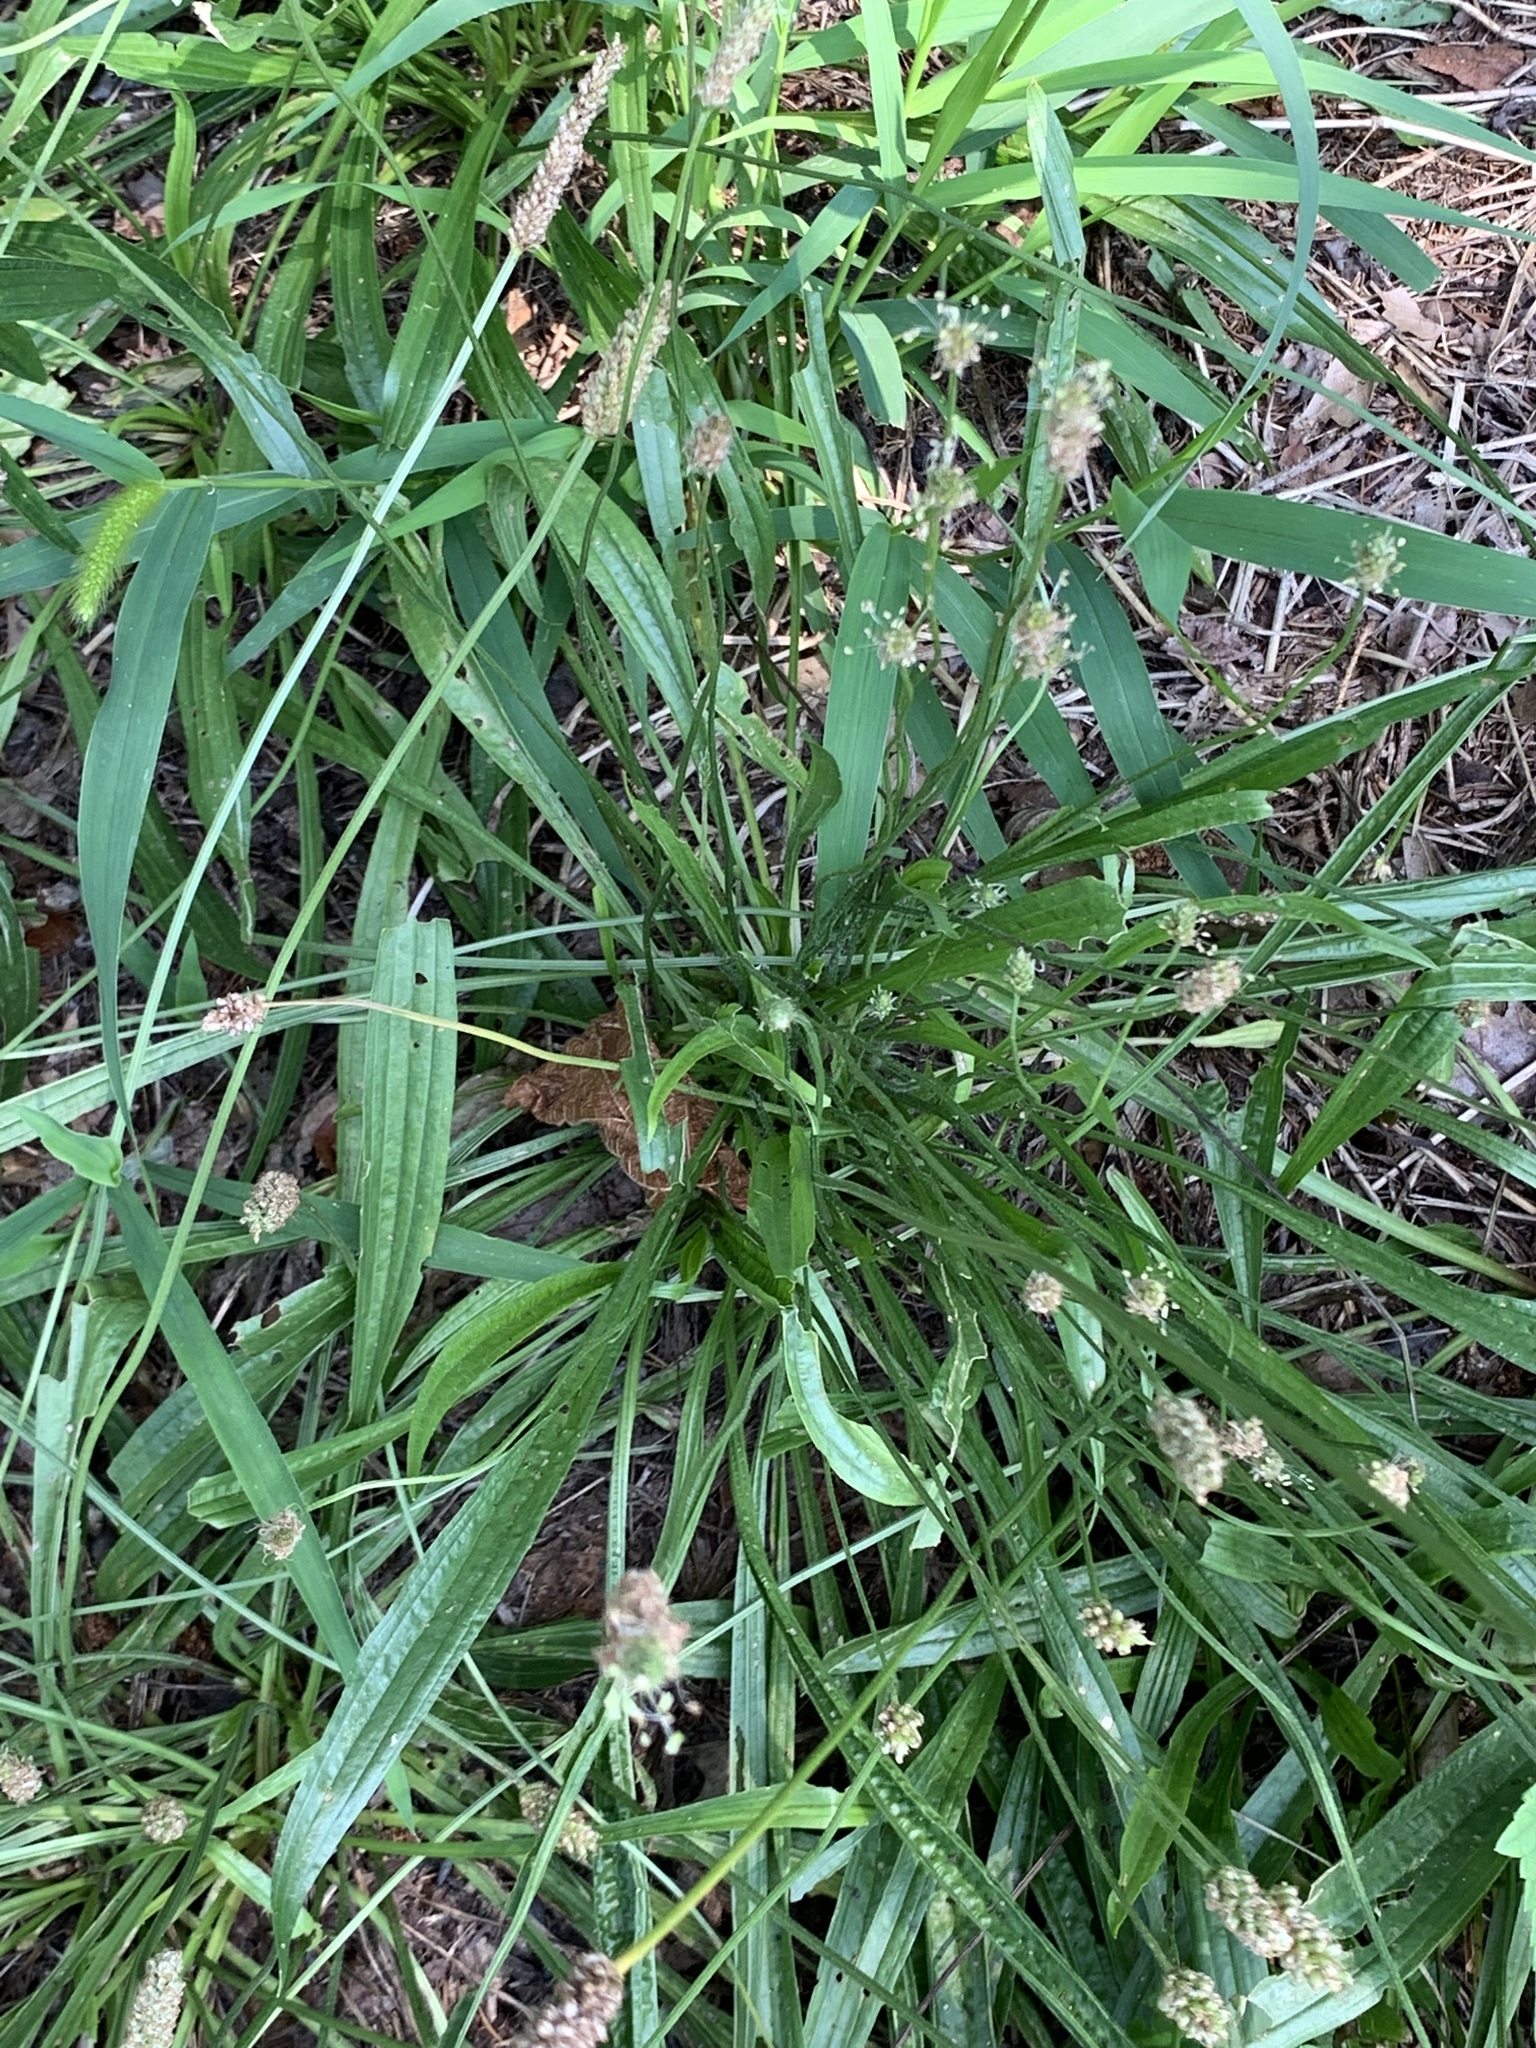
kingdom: Plantae
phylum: Tracheophyta
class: Magnoliopsida
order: Lamiales
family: Plantaginaceae
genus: Plantago
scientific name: Plantago lanceolata
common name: Ribwort plantain
